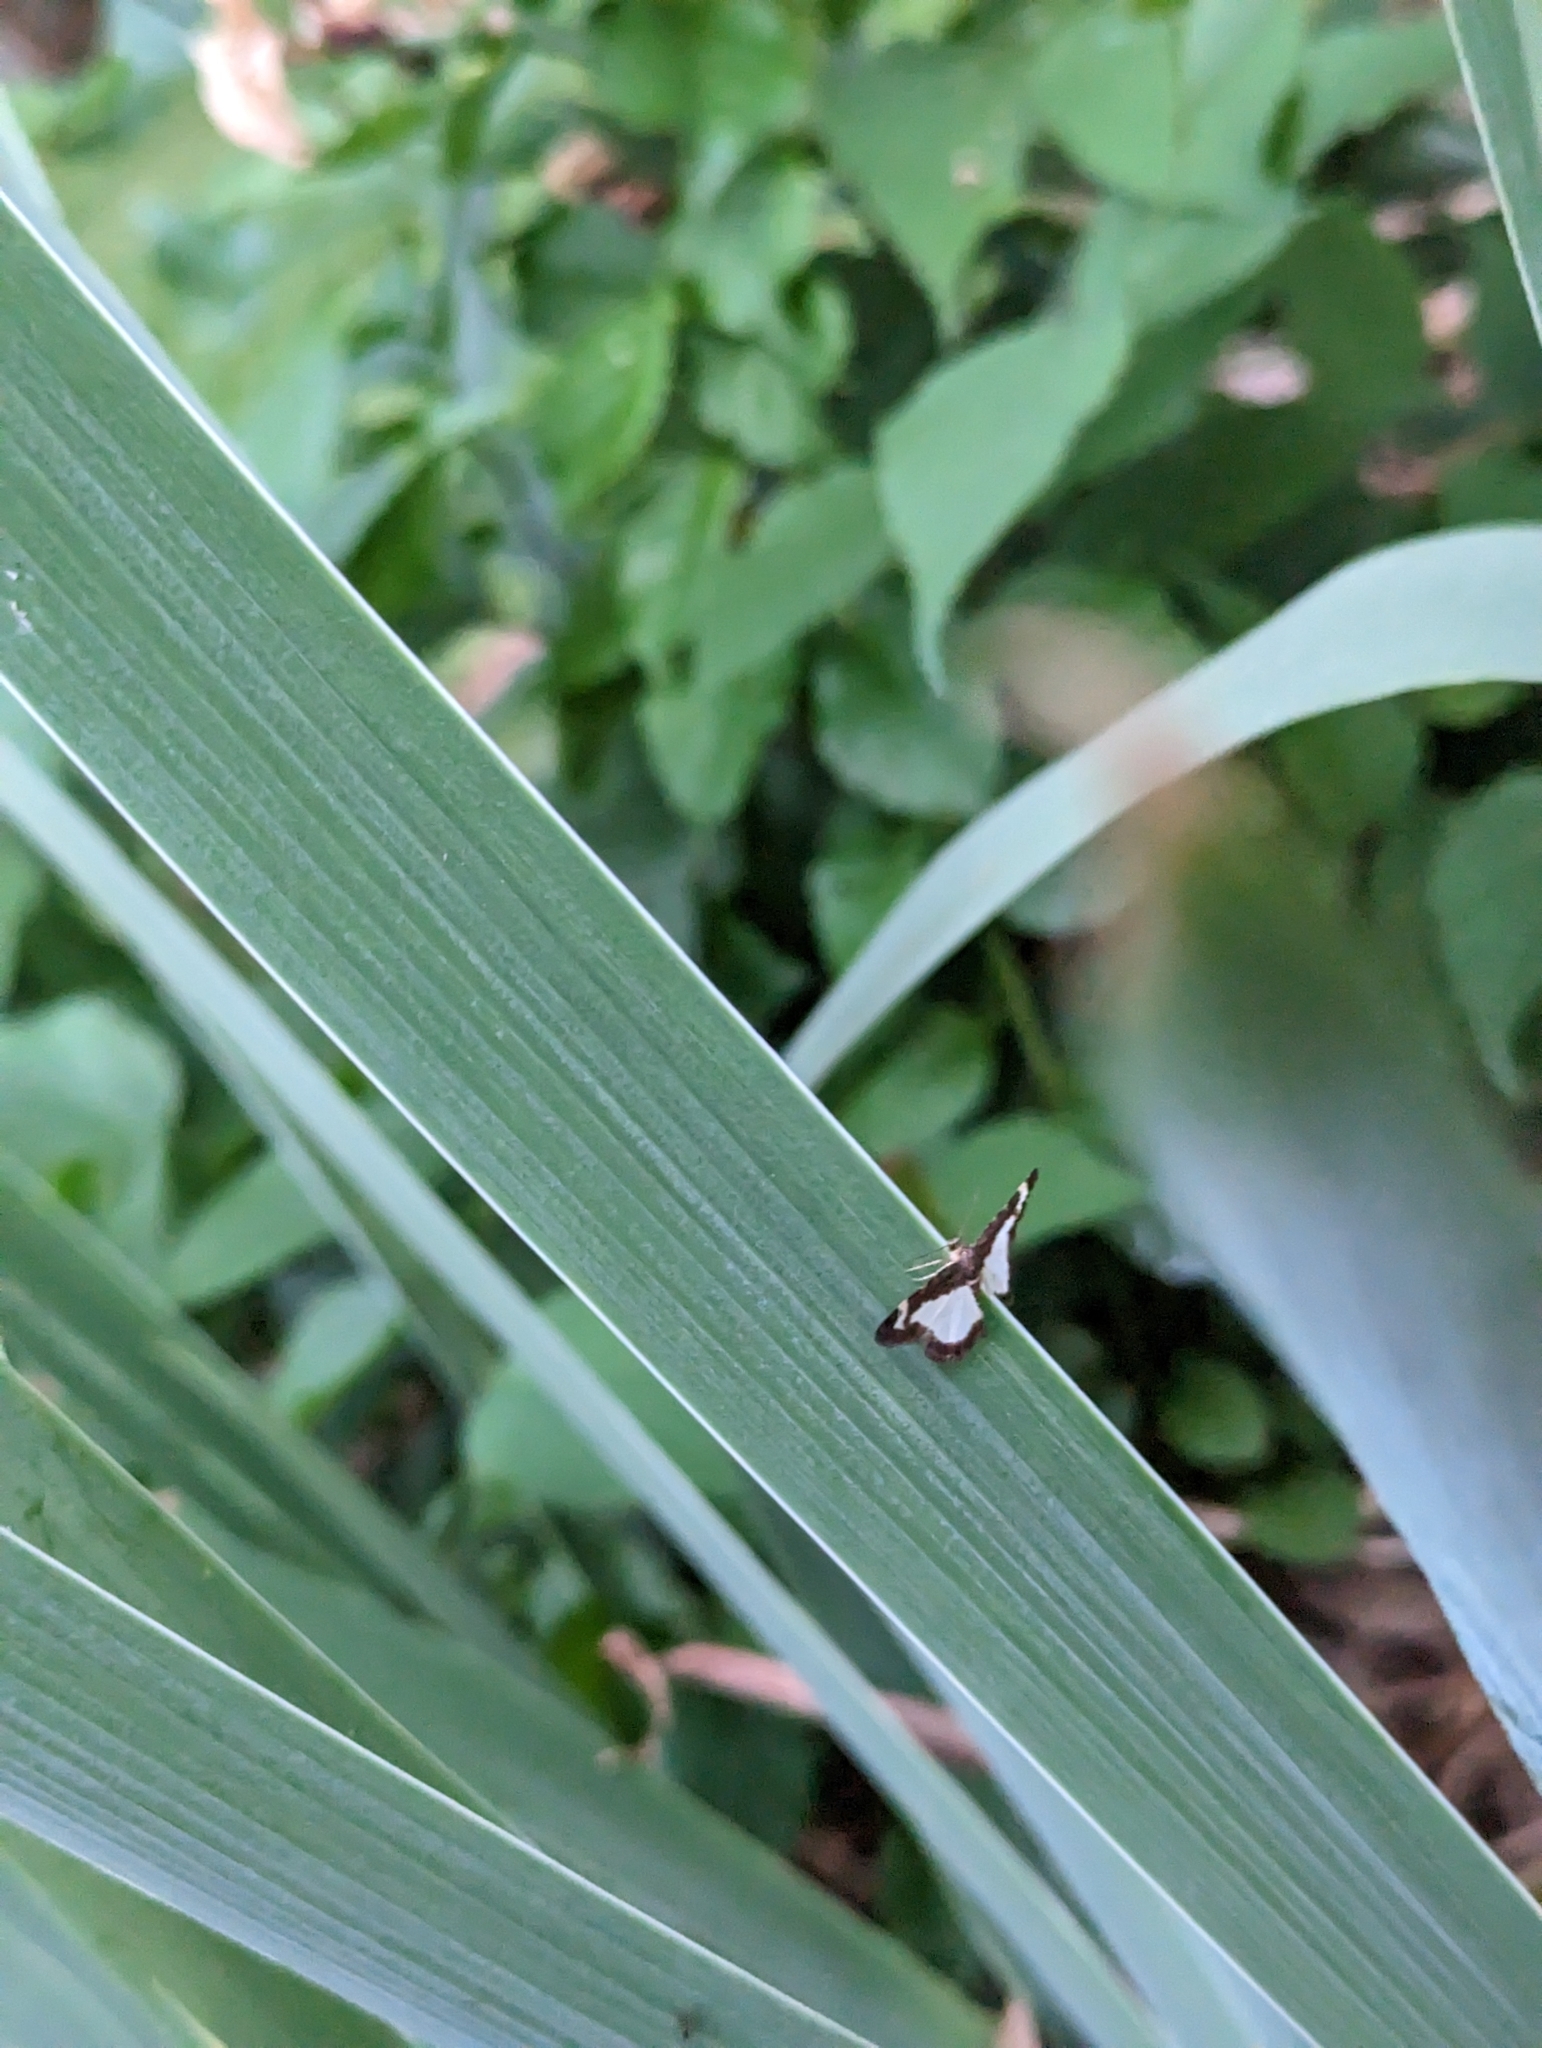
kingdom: Animalia
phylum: Arthropoda
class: Insecta
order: Lepidoptera
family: Geometridae
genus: Heliomata
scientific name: Heliomata cycladata
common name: Common spring moth
